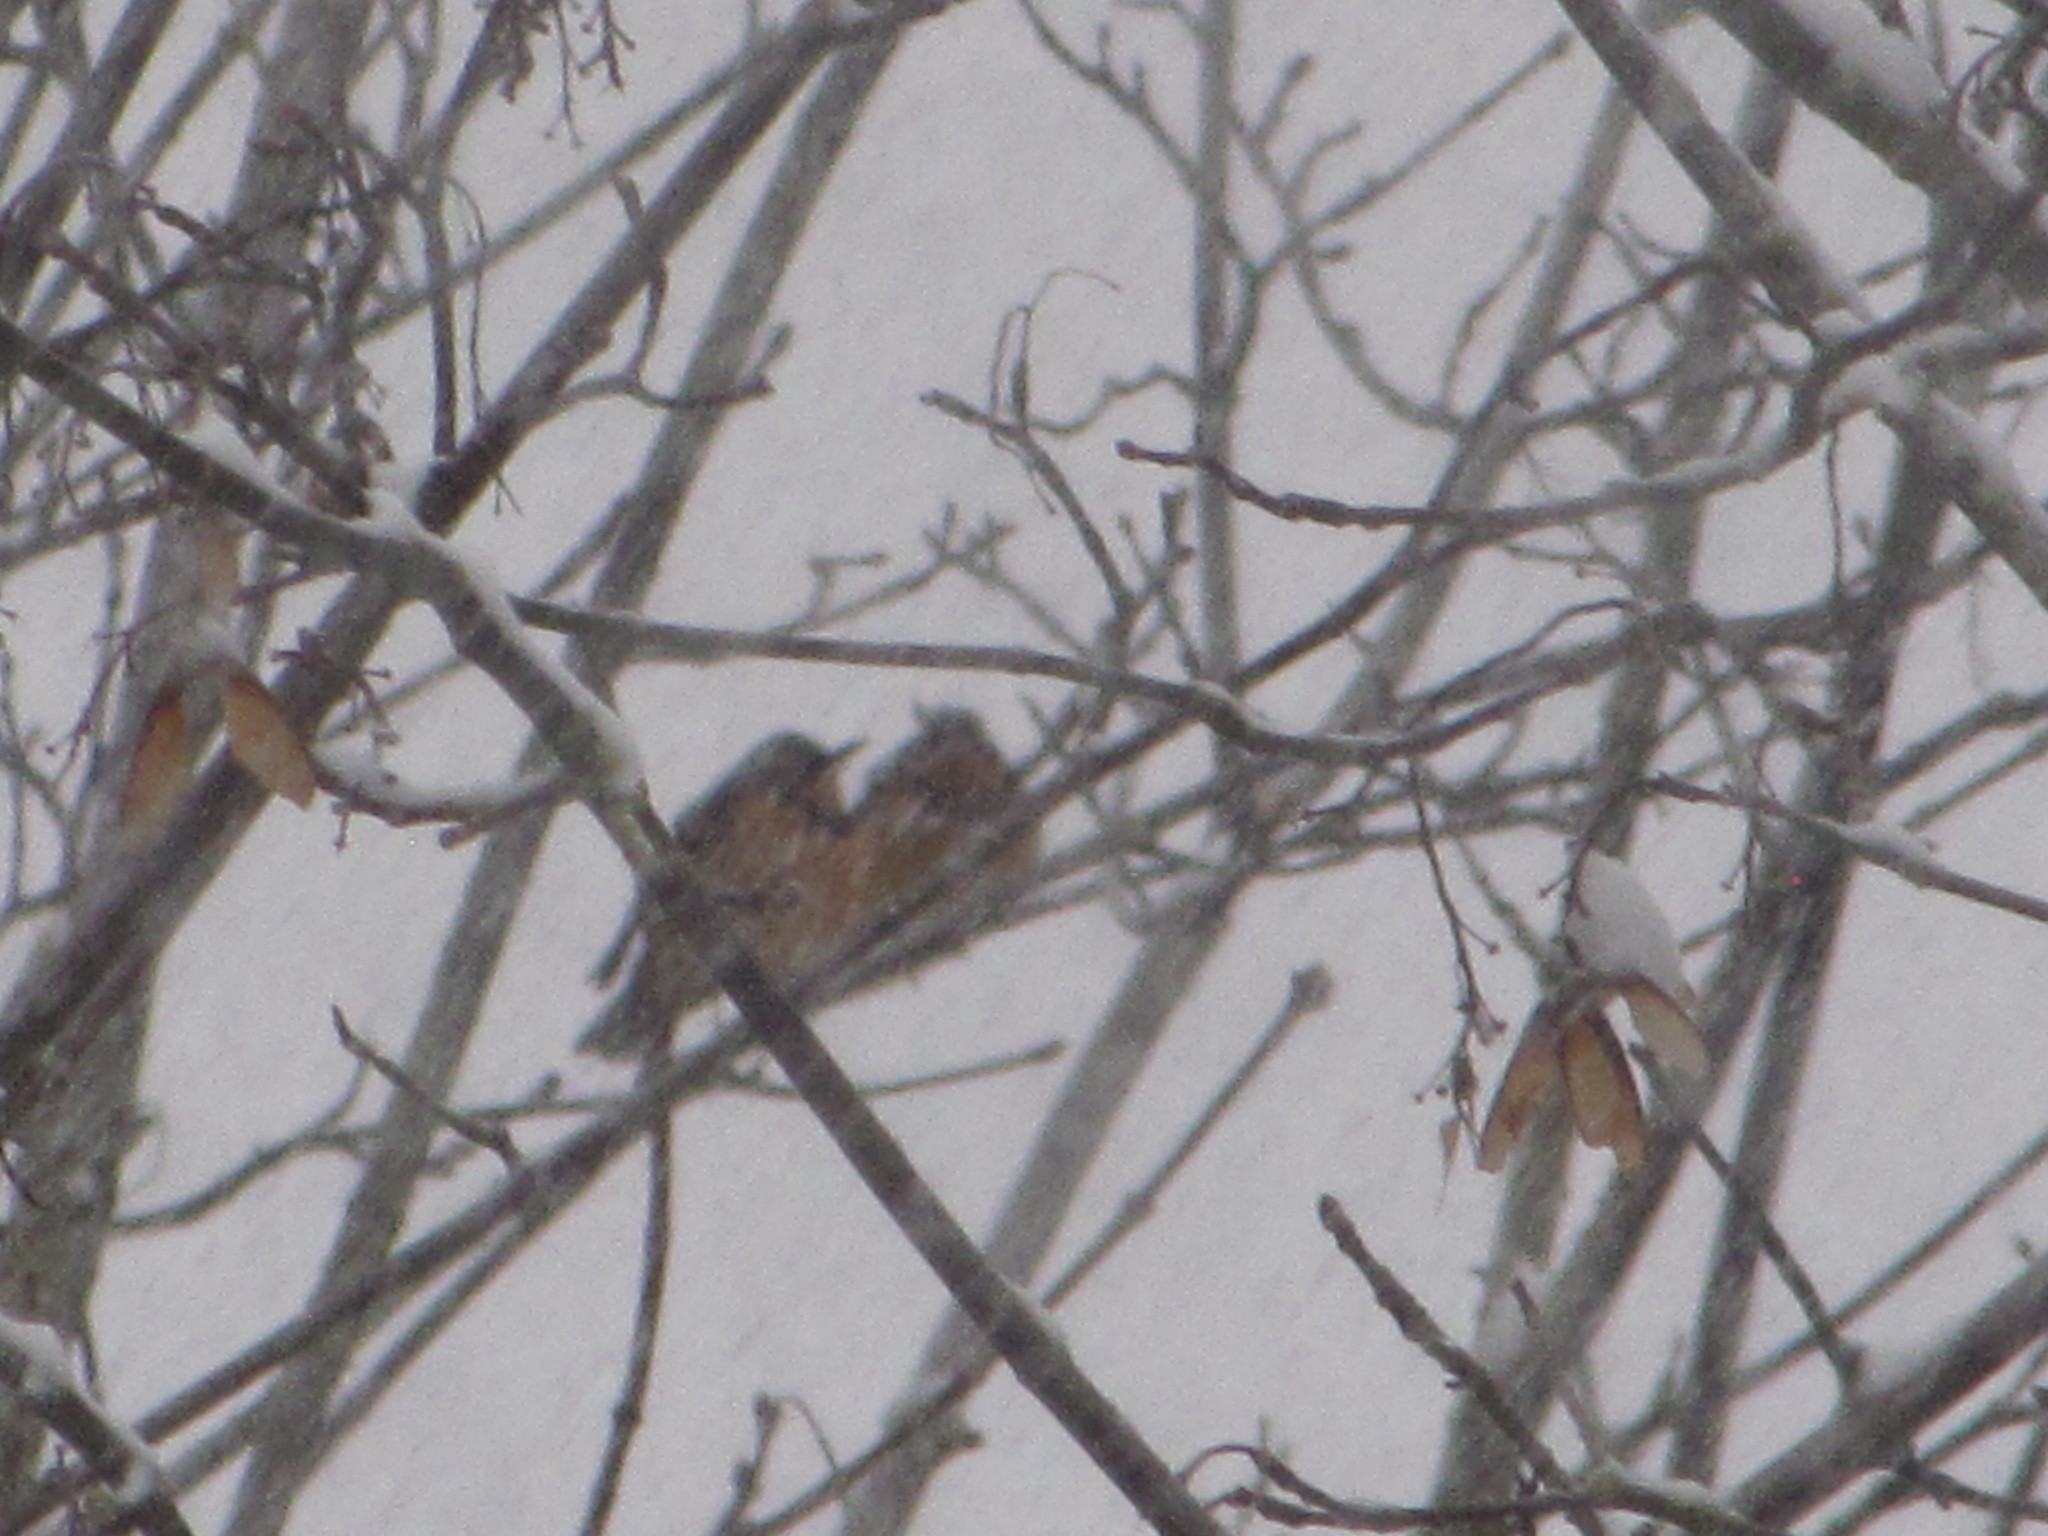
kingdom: Animalia
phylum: Chordata
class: Aves
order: Passeriformes
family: Turdidae
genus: Ixoreus
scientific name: Ixoreus naevius
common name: Varied thrush
